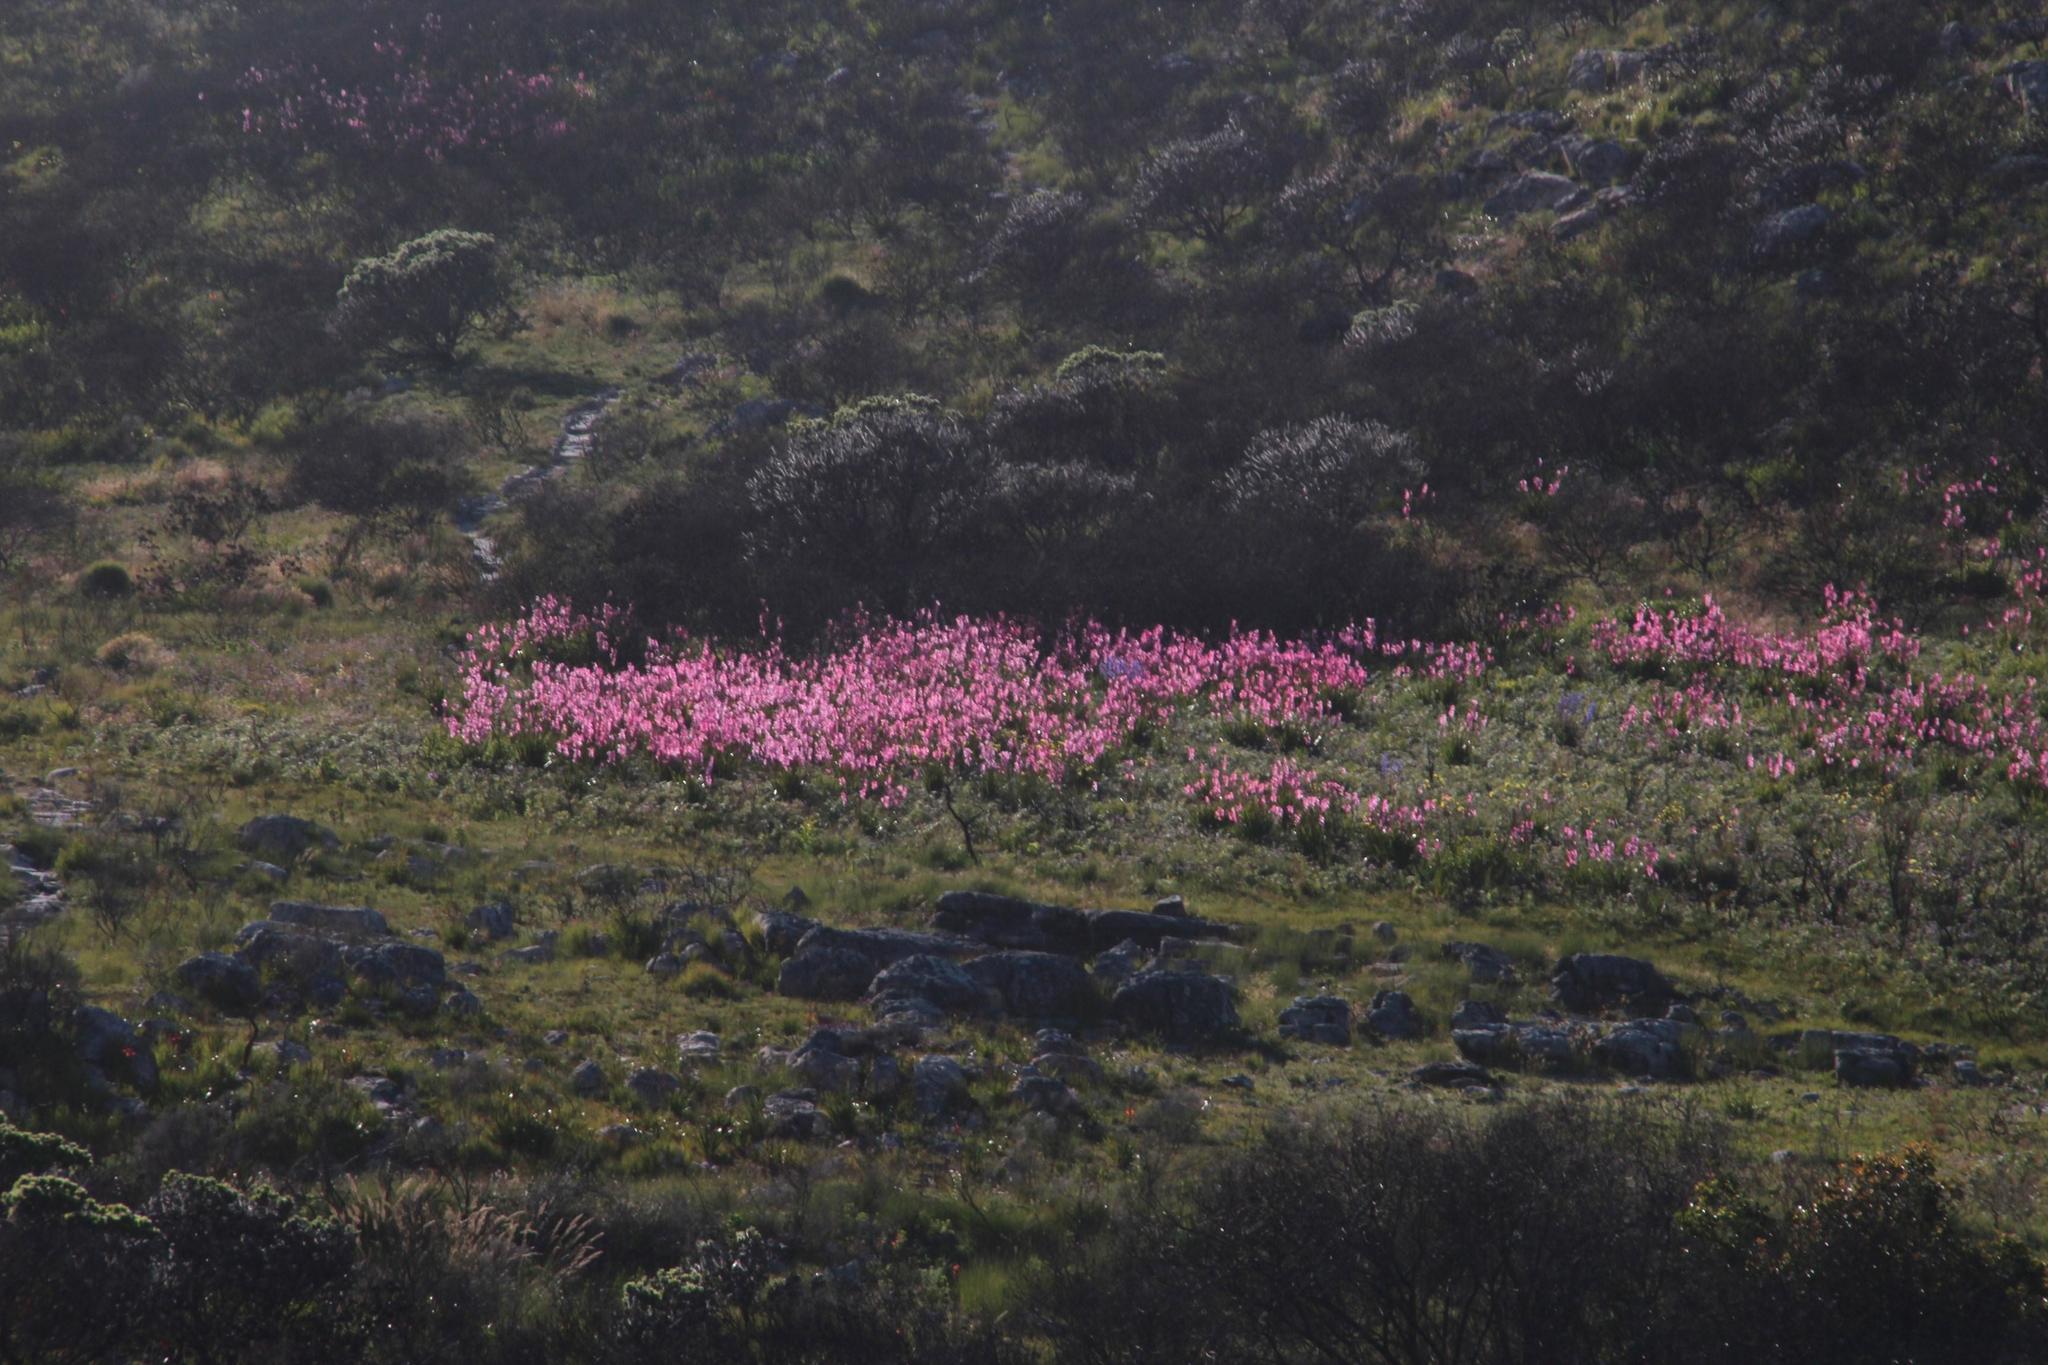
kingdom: Plantae
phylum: Tracheophyta
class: Liliopsida
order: Asparagales
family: Iridaceae
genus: Watsonia
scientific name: Watsonia borbonica
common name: Bugle-lily
